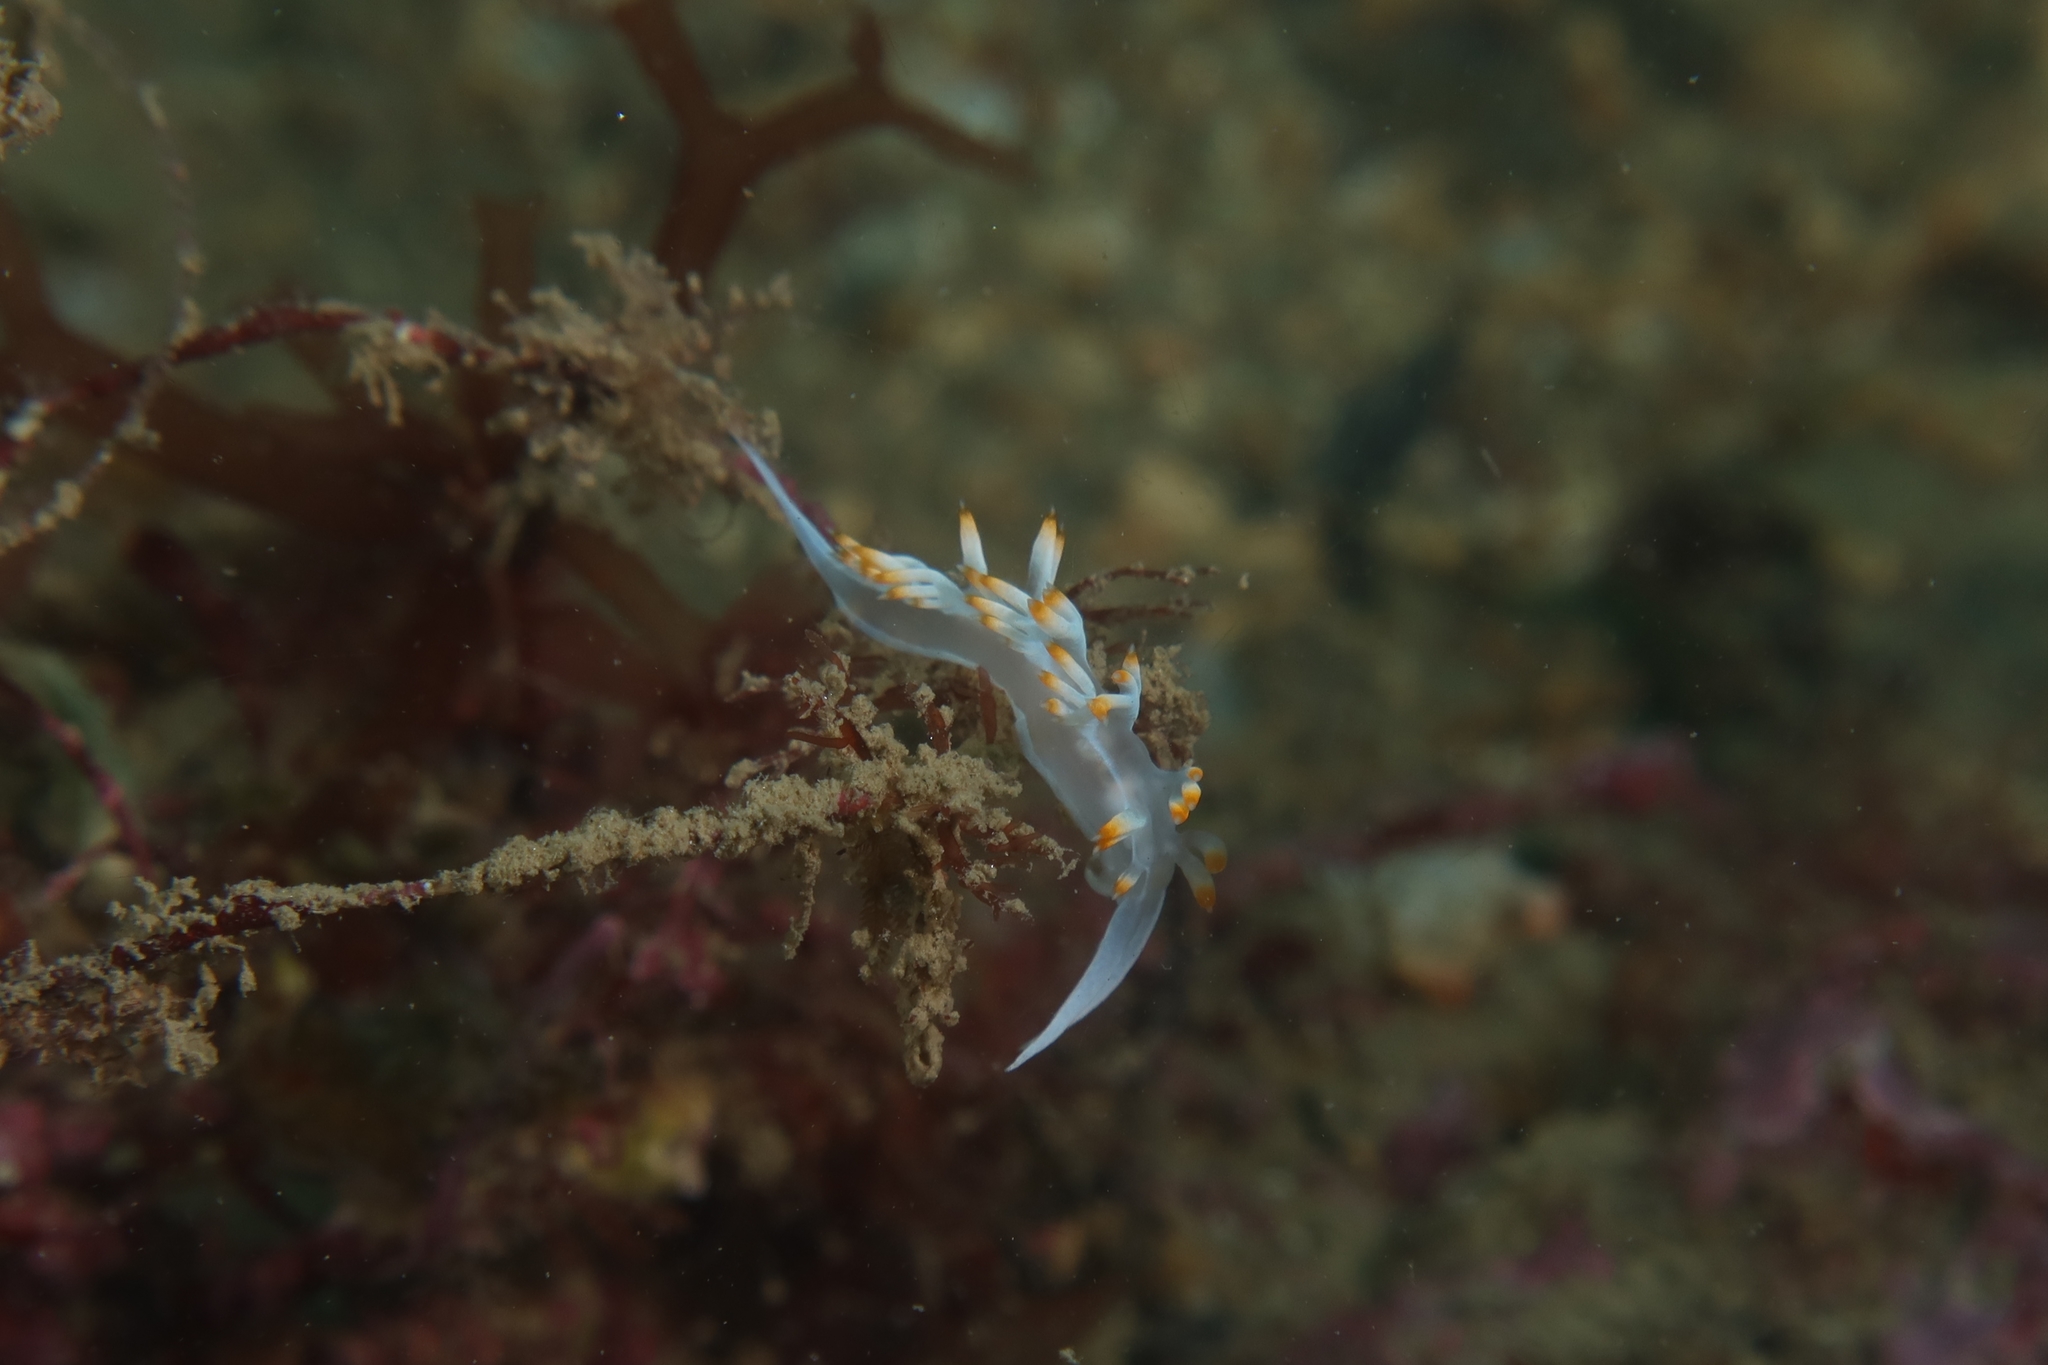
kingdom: Animalia
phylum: Mollusca
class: Gastropoda
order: Nudibranchia
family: Samlidae
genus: Luisella
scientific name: Luisella babai
